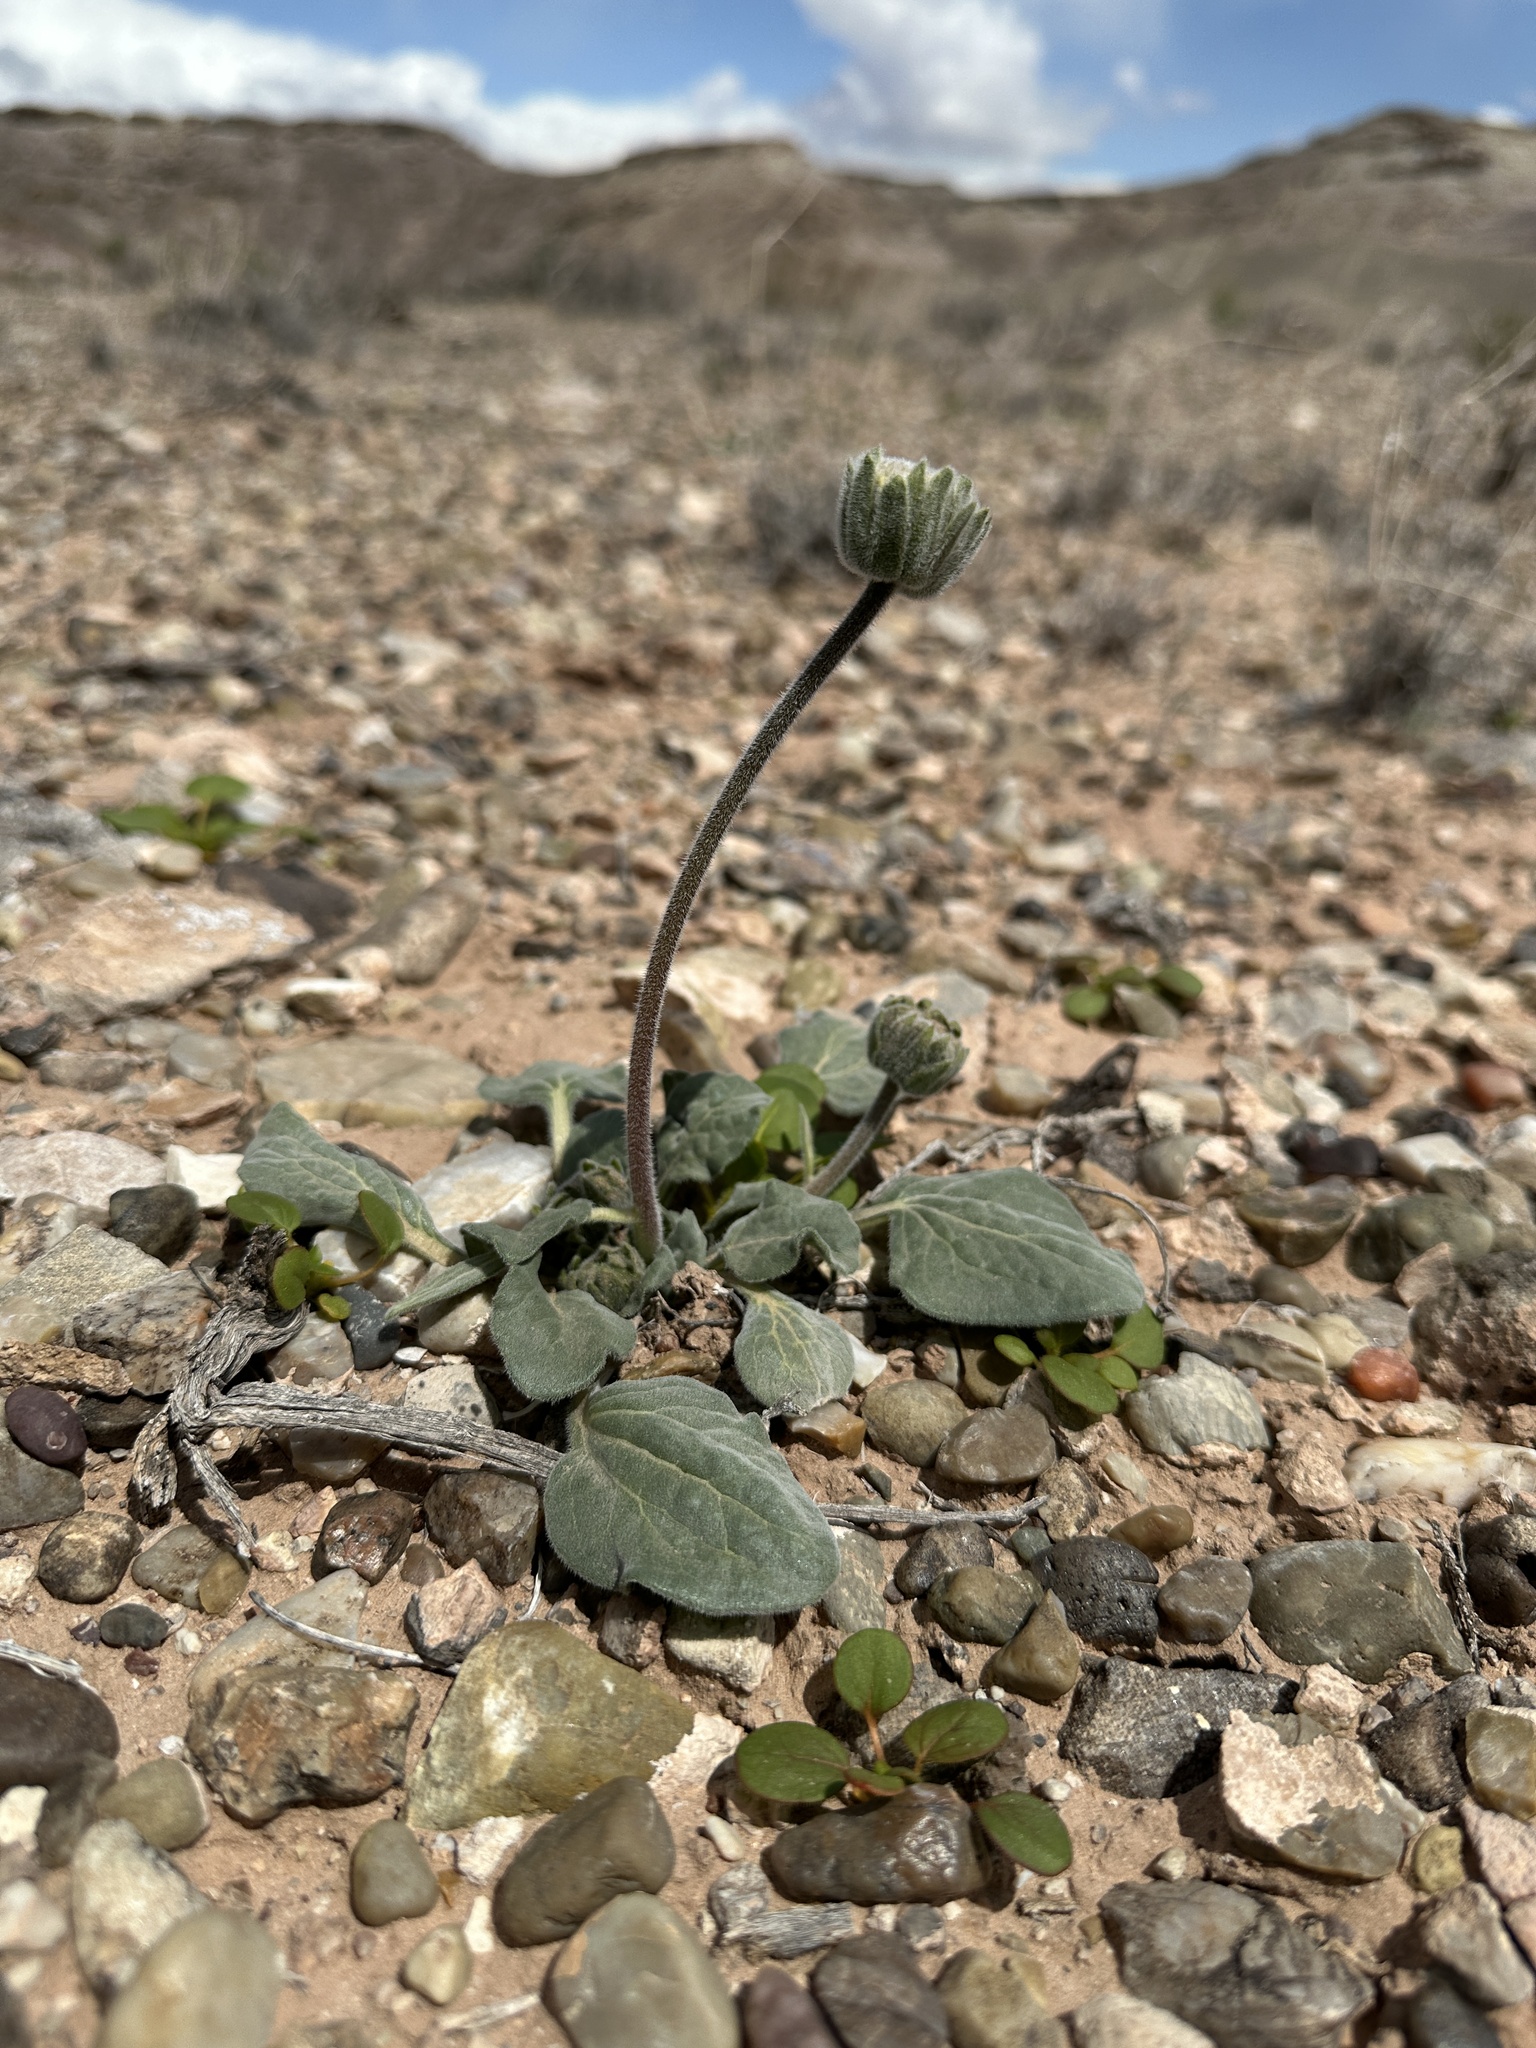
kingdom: Plantae
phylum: Tracheophyta
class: Magnoliopsida
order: Asterales
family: Asteraceae
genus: Encelia
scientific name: Encelia nutans
